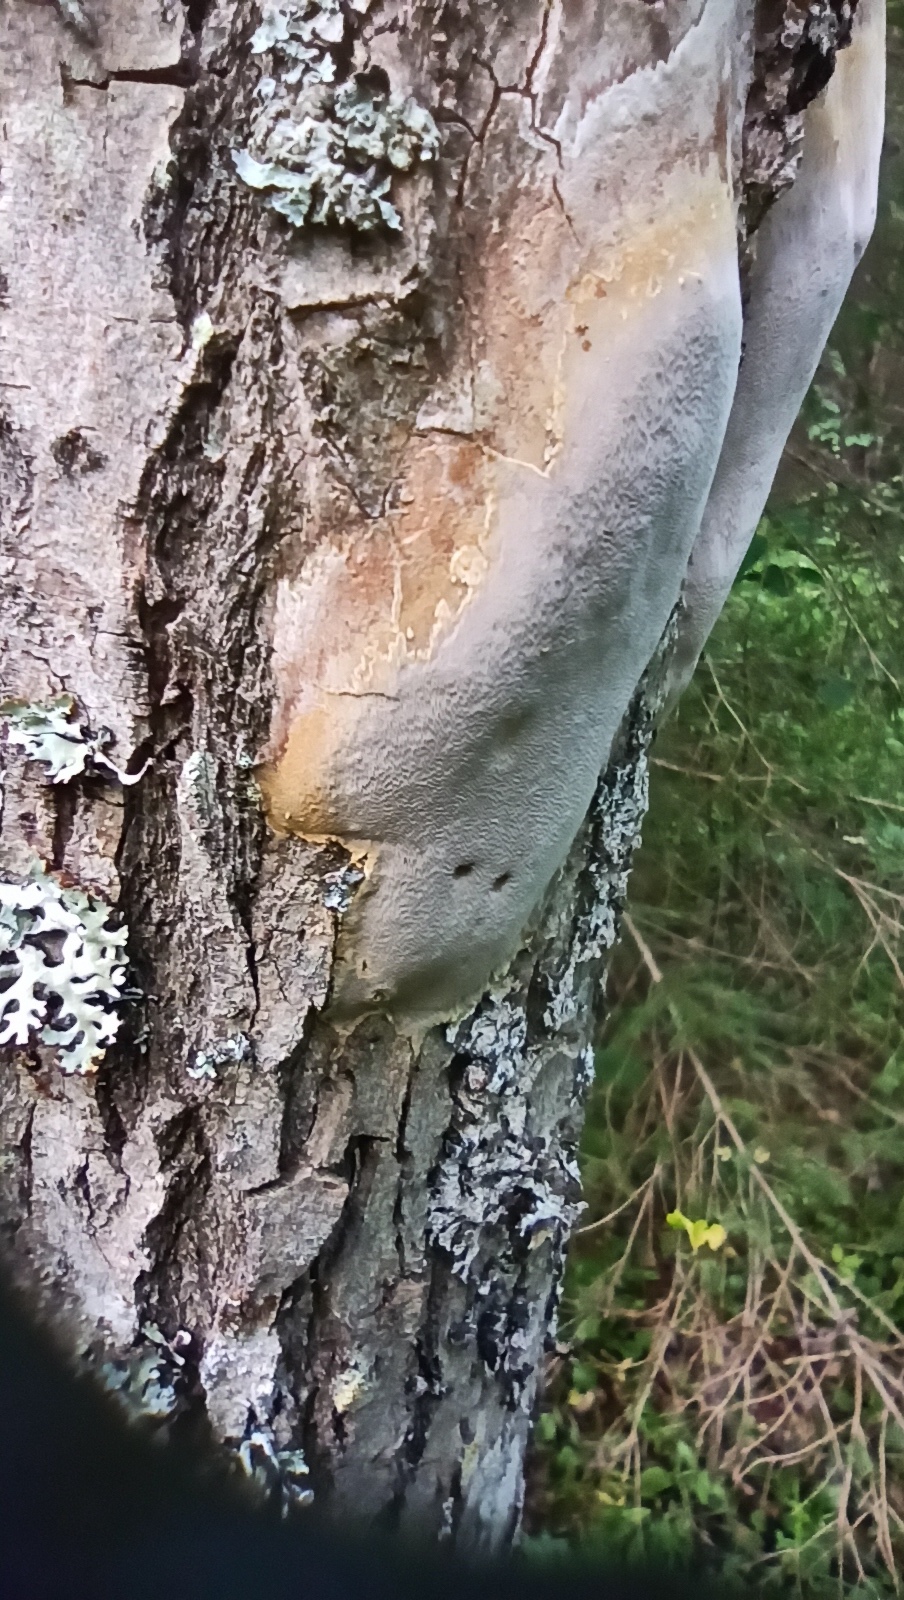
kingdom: Fungi
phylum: Basidiomycota
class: Agaricomycetes
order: Hymenochaetales
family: Hymenochaetaceae
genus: Fomitiporia
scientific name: Fomitiporia punctata
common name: Elbowpatch crust
